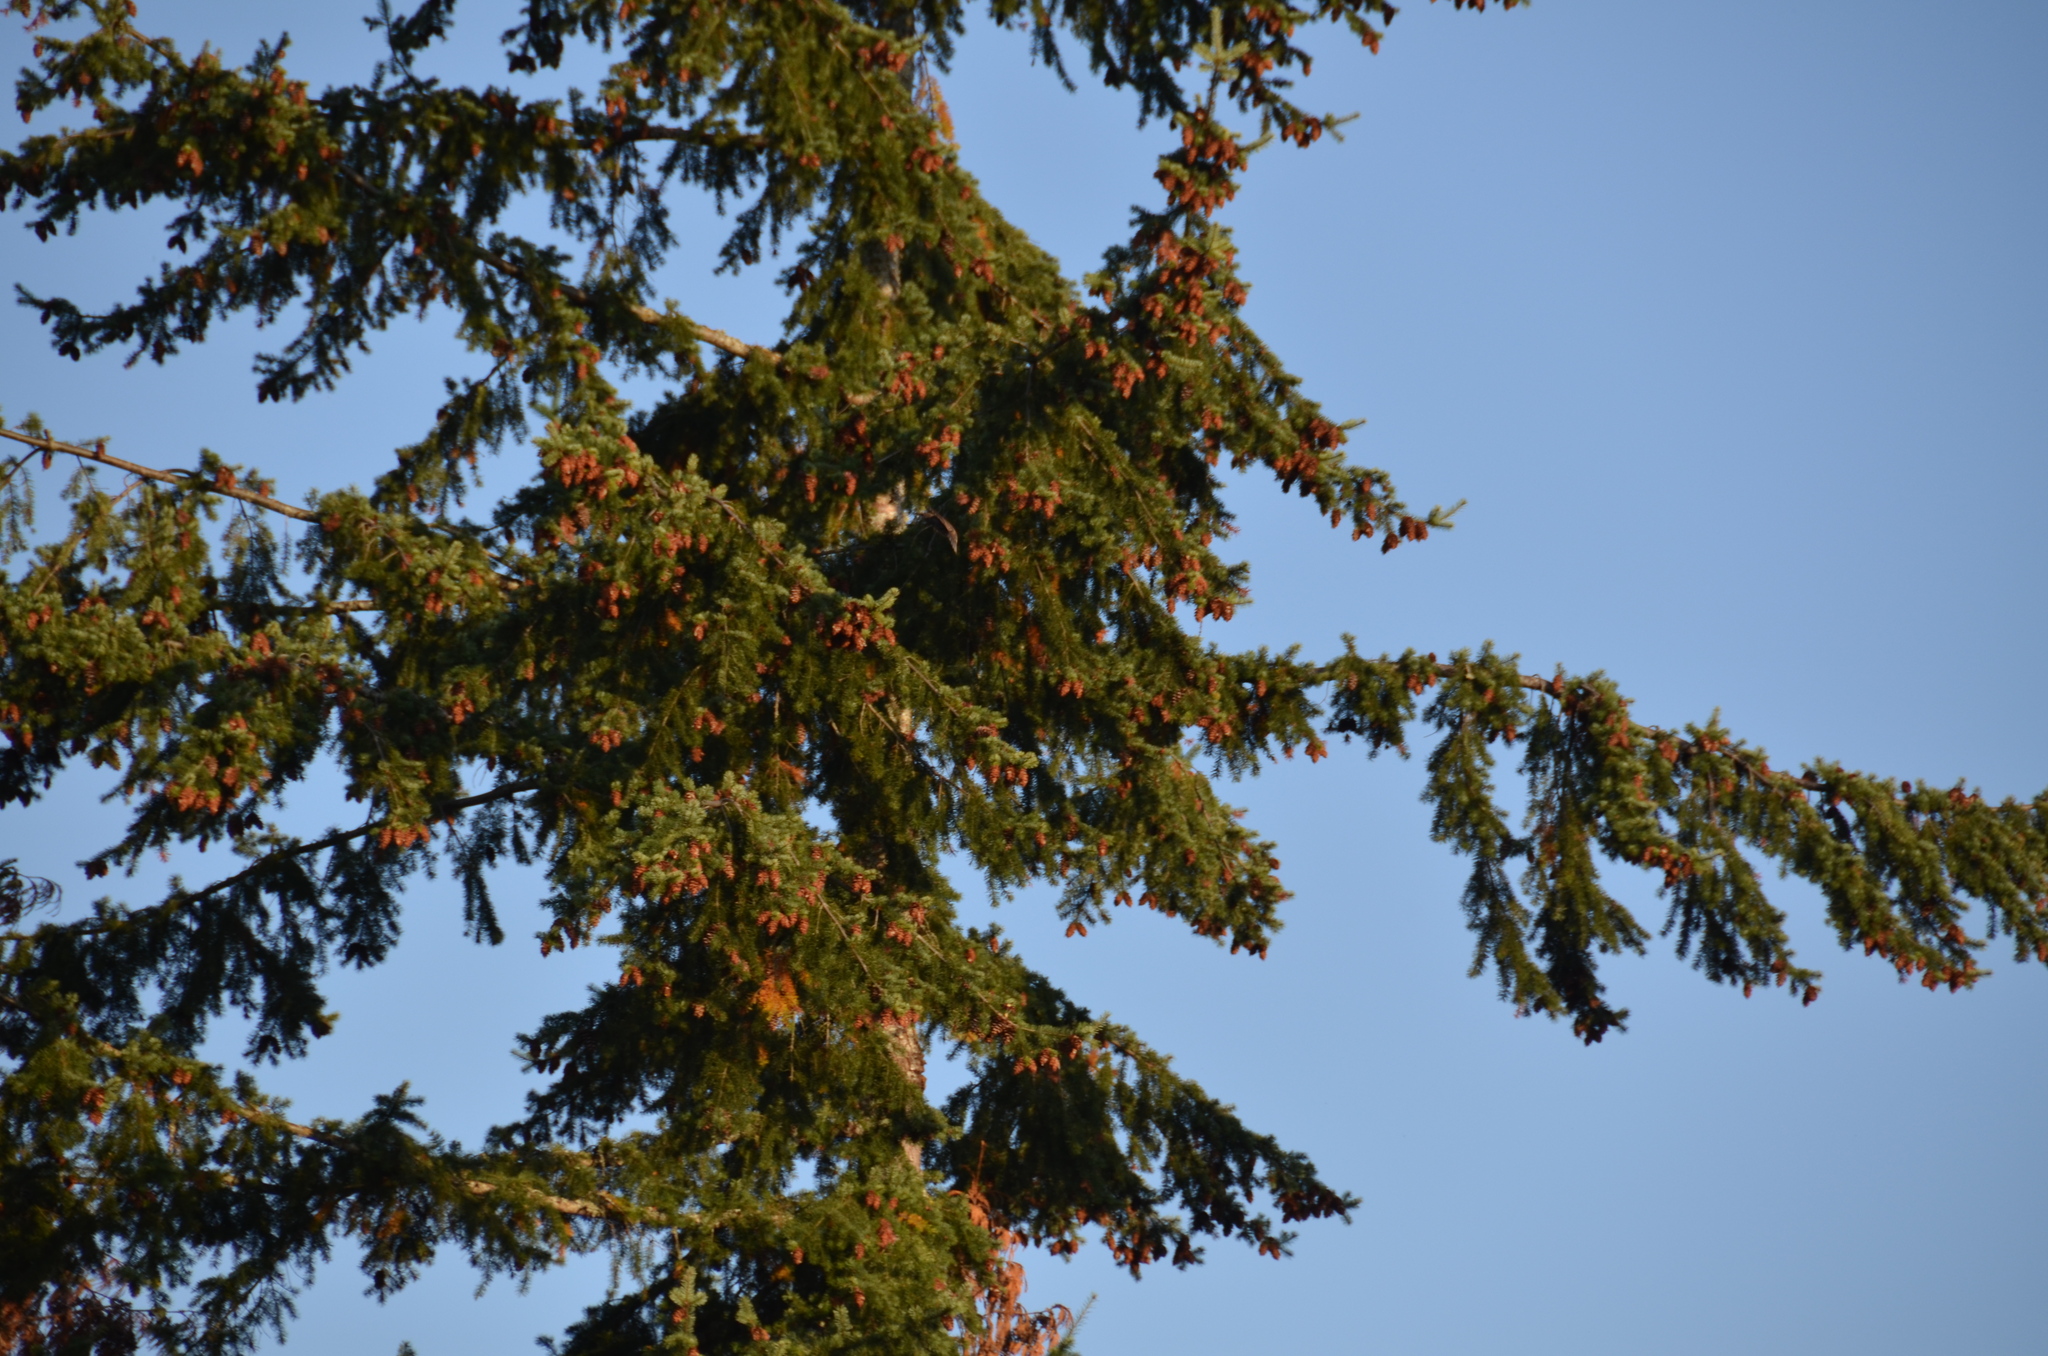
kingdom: Animalia
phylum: Chordata
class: Aves
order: Passeriformes
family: Sturnidae
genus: Sturnus
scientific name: Sturnus vulgaris
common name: Common starling
